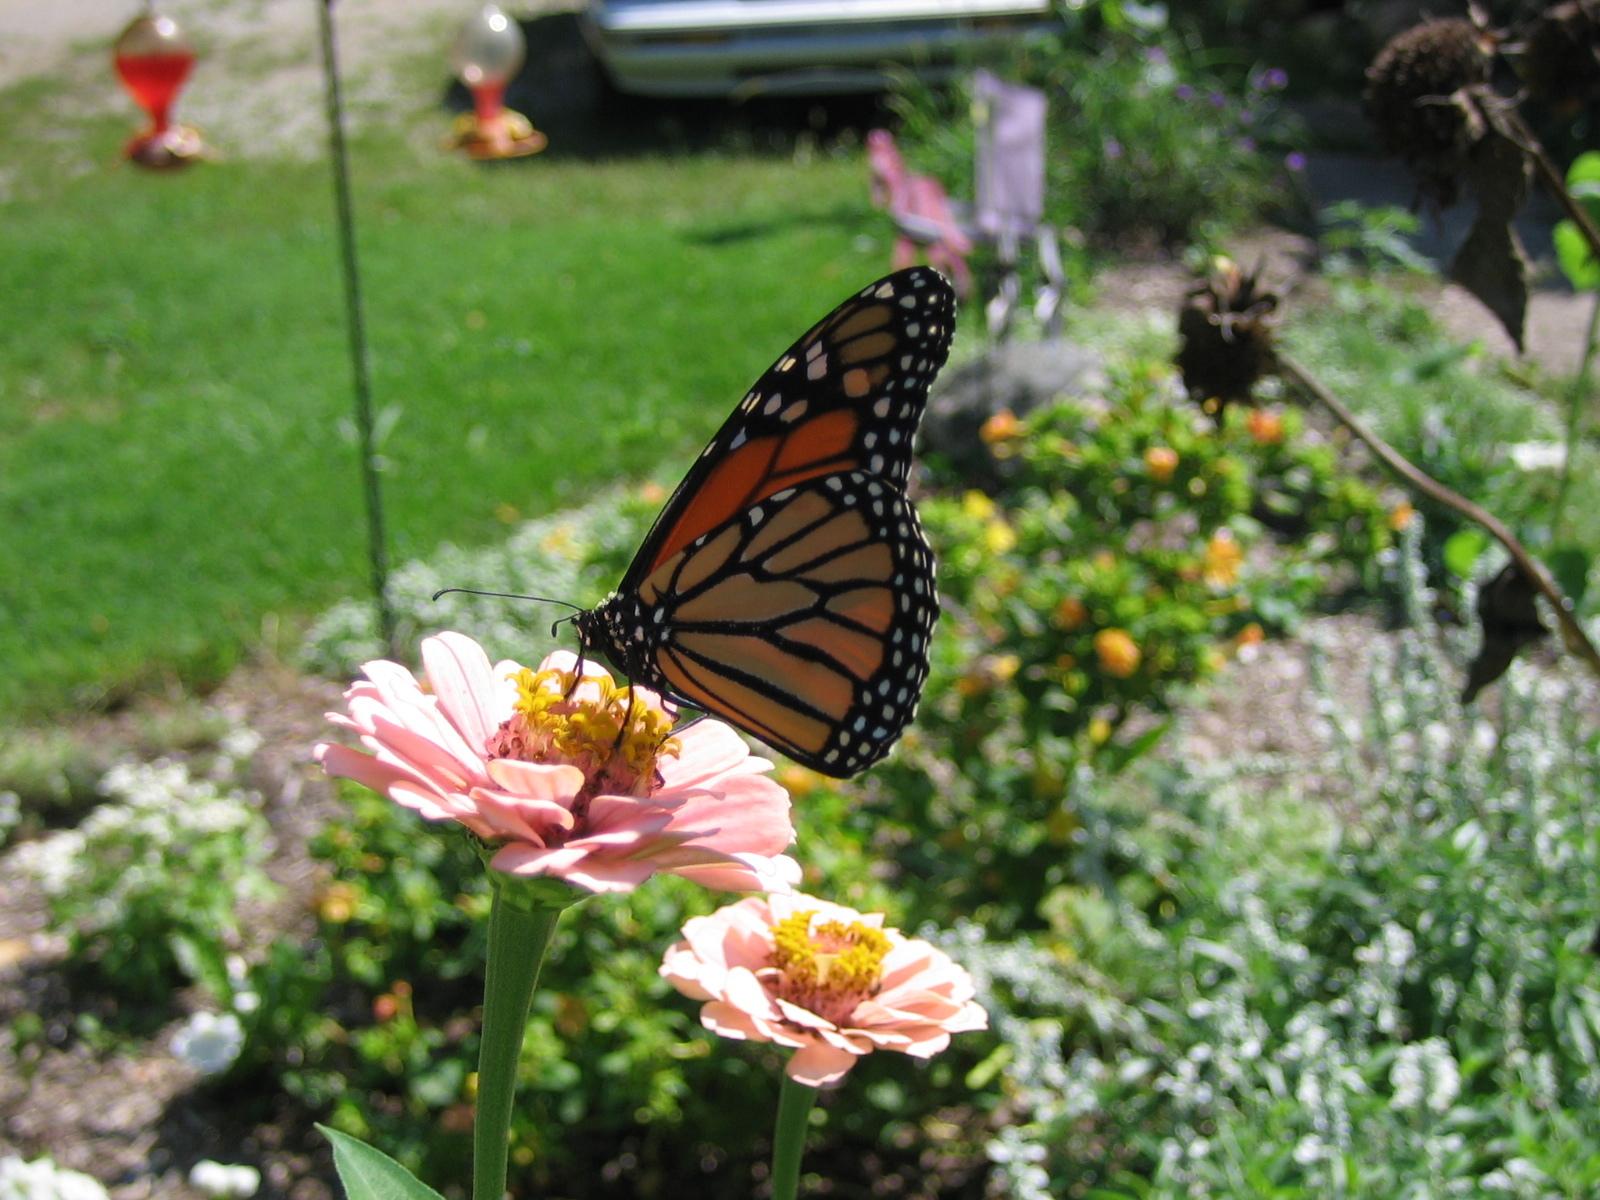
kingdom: Animalia
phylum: Arthropoda
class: Insecta
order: Lepidoptera
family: Nymphalidae
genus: Danaus
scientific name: Danaus plexippus
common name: Monarch
